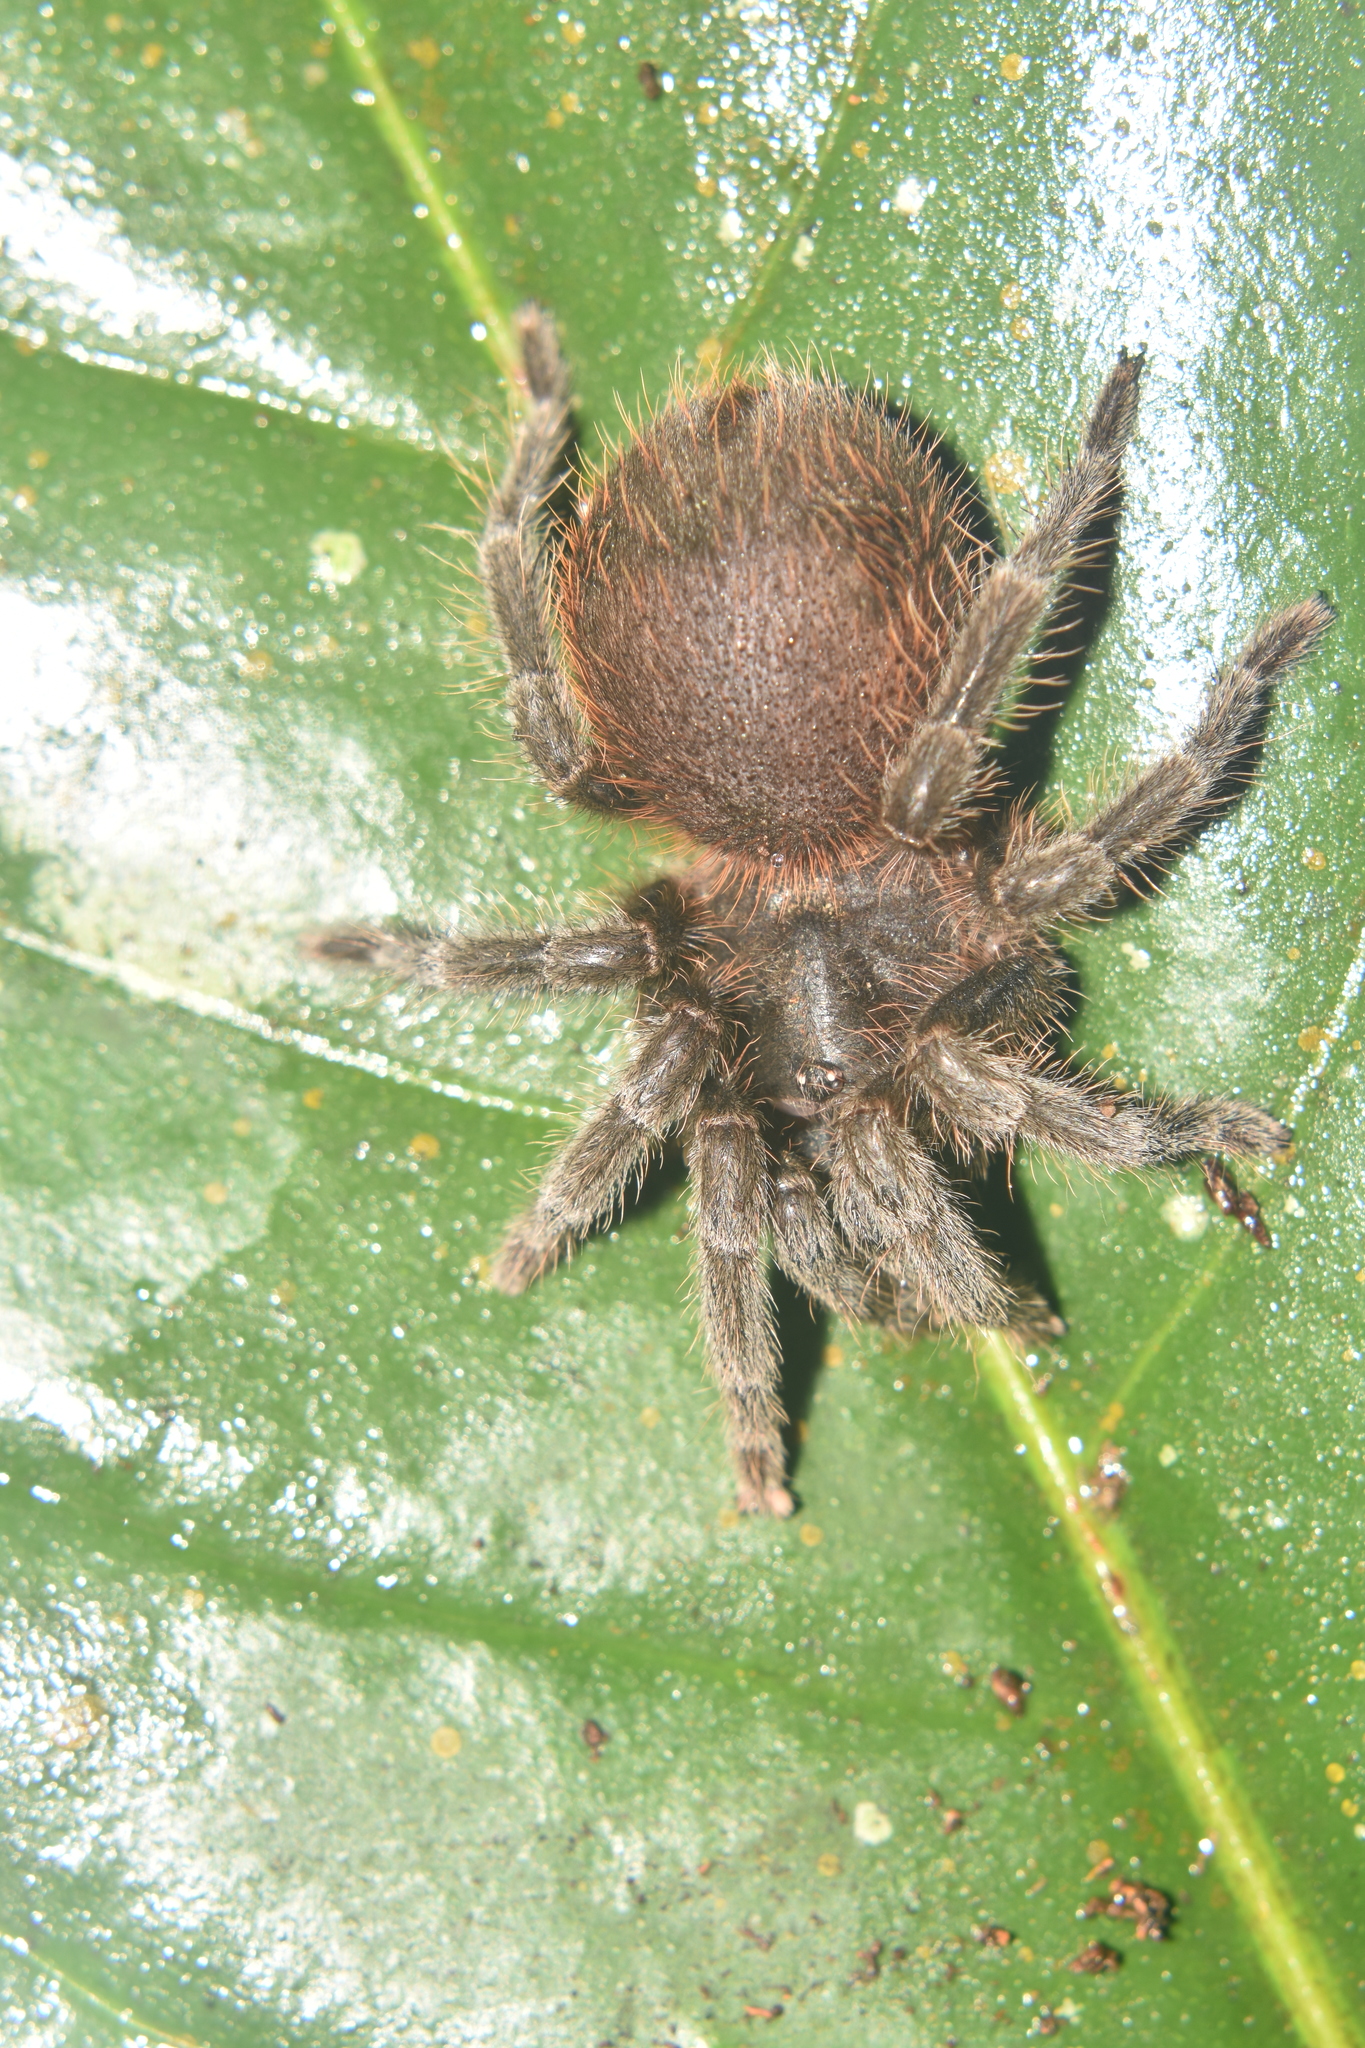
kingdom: Animalia
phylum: Arthropoda
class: Arachnida
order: Araneae
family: Theraphosidae
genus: Aguapanela
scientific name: Aguapanela arvi
